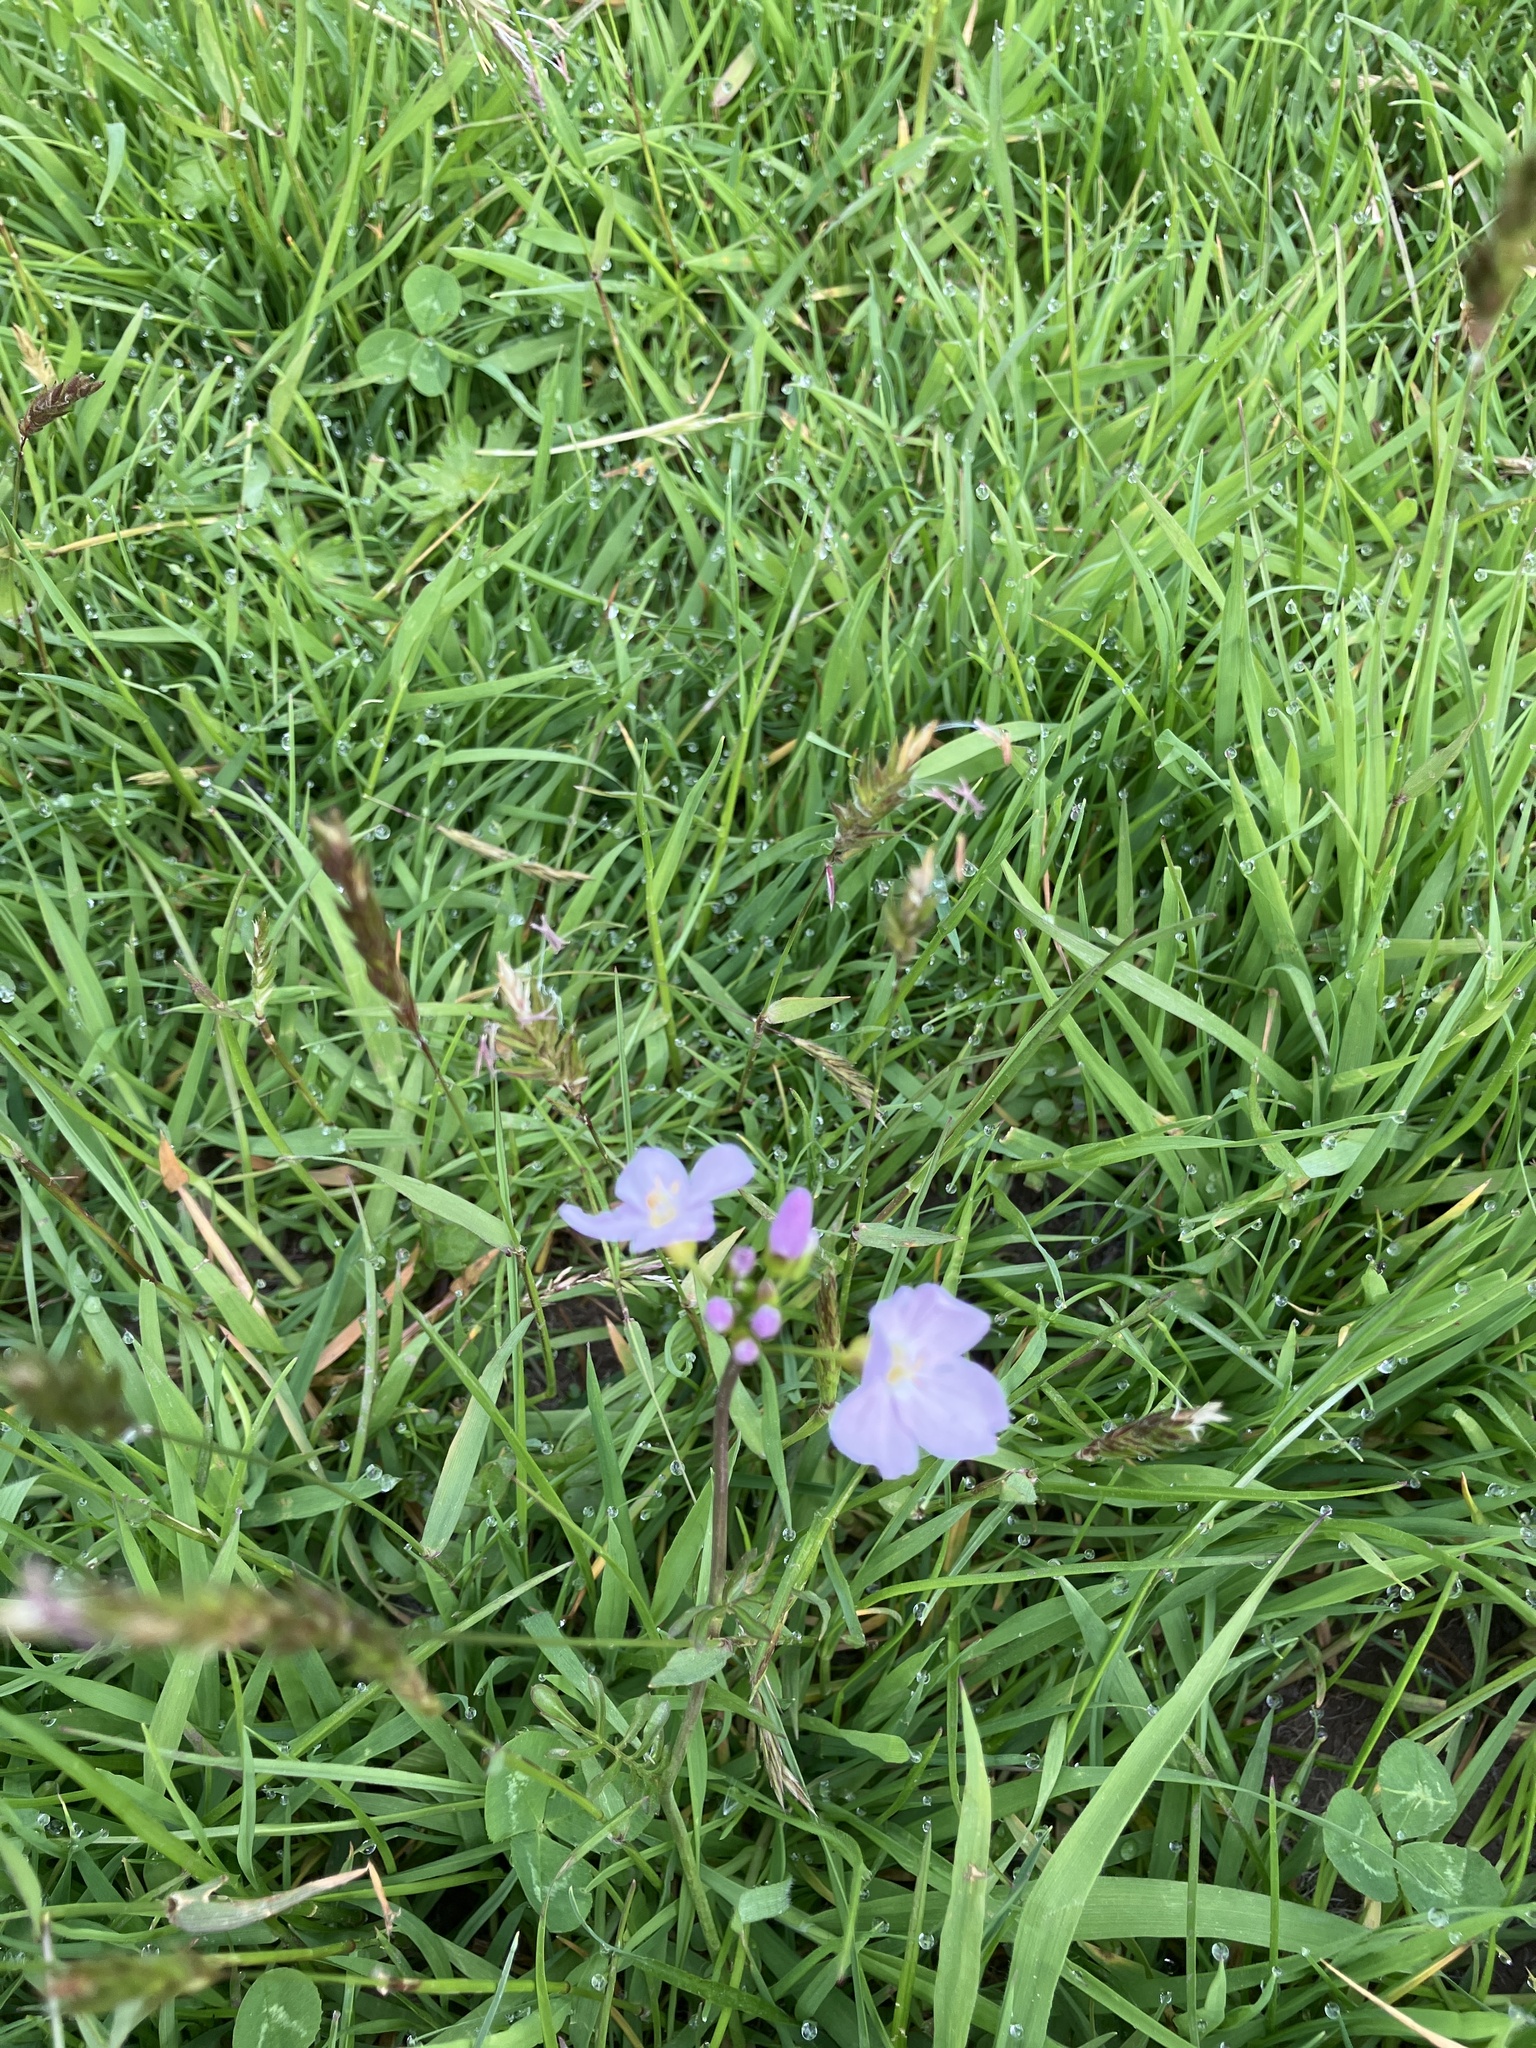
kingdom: Plantae
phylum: Tracheophyta
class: Magnoliopsida
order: Brassicales
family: Brassicaceae
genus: Cardamine
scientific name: Cardamine pratensis
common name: Cuckoo flower
